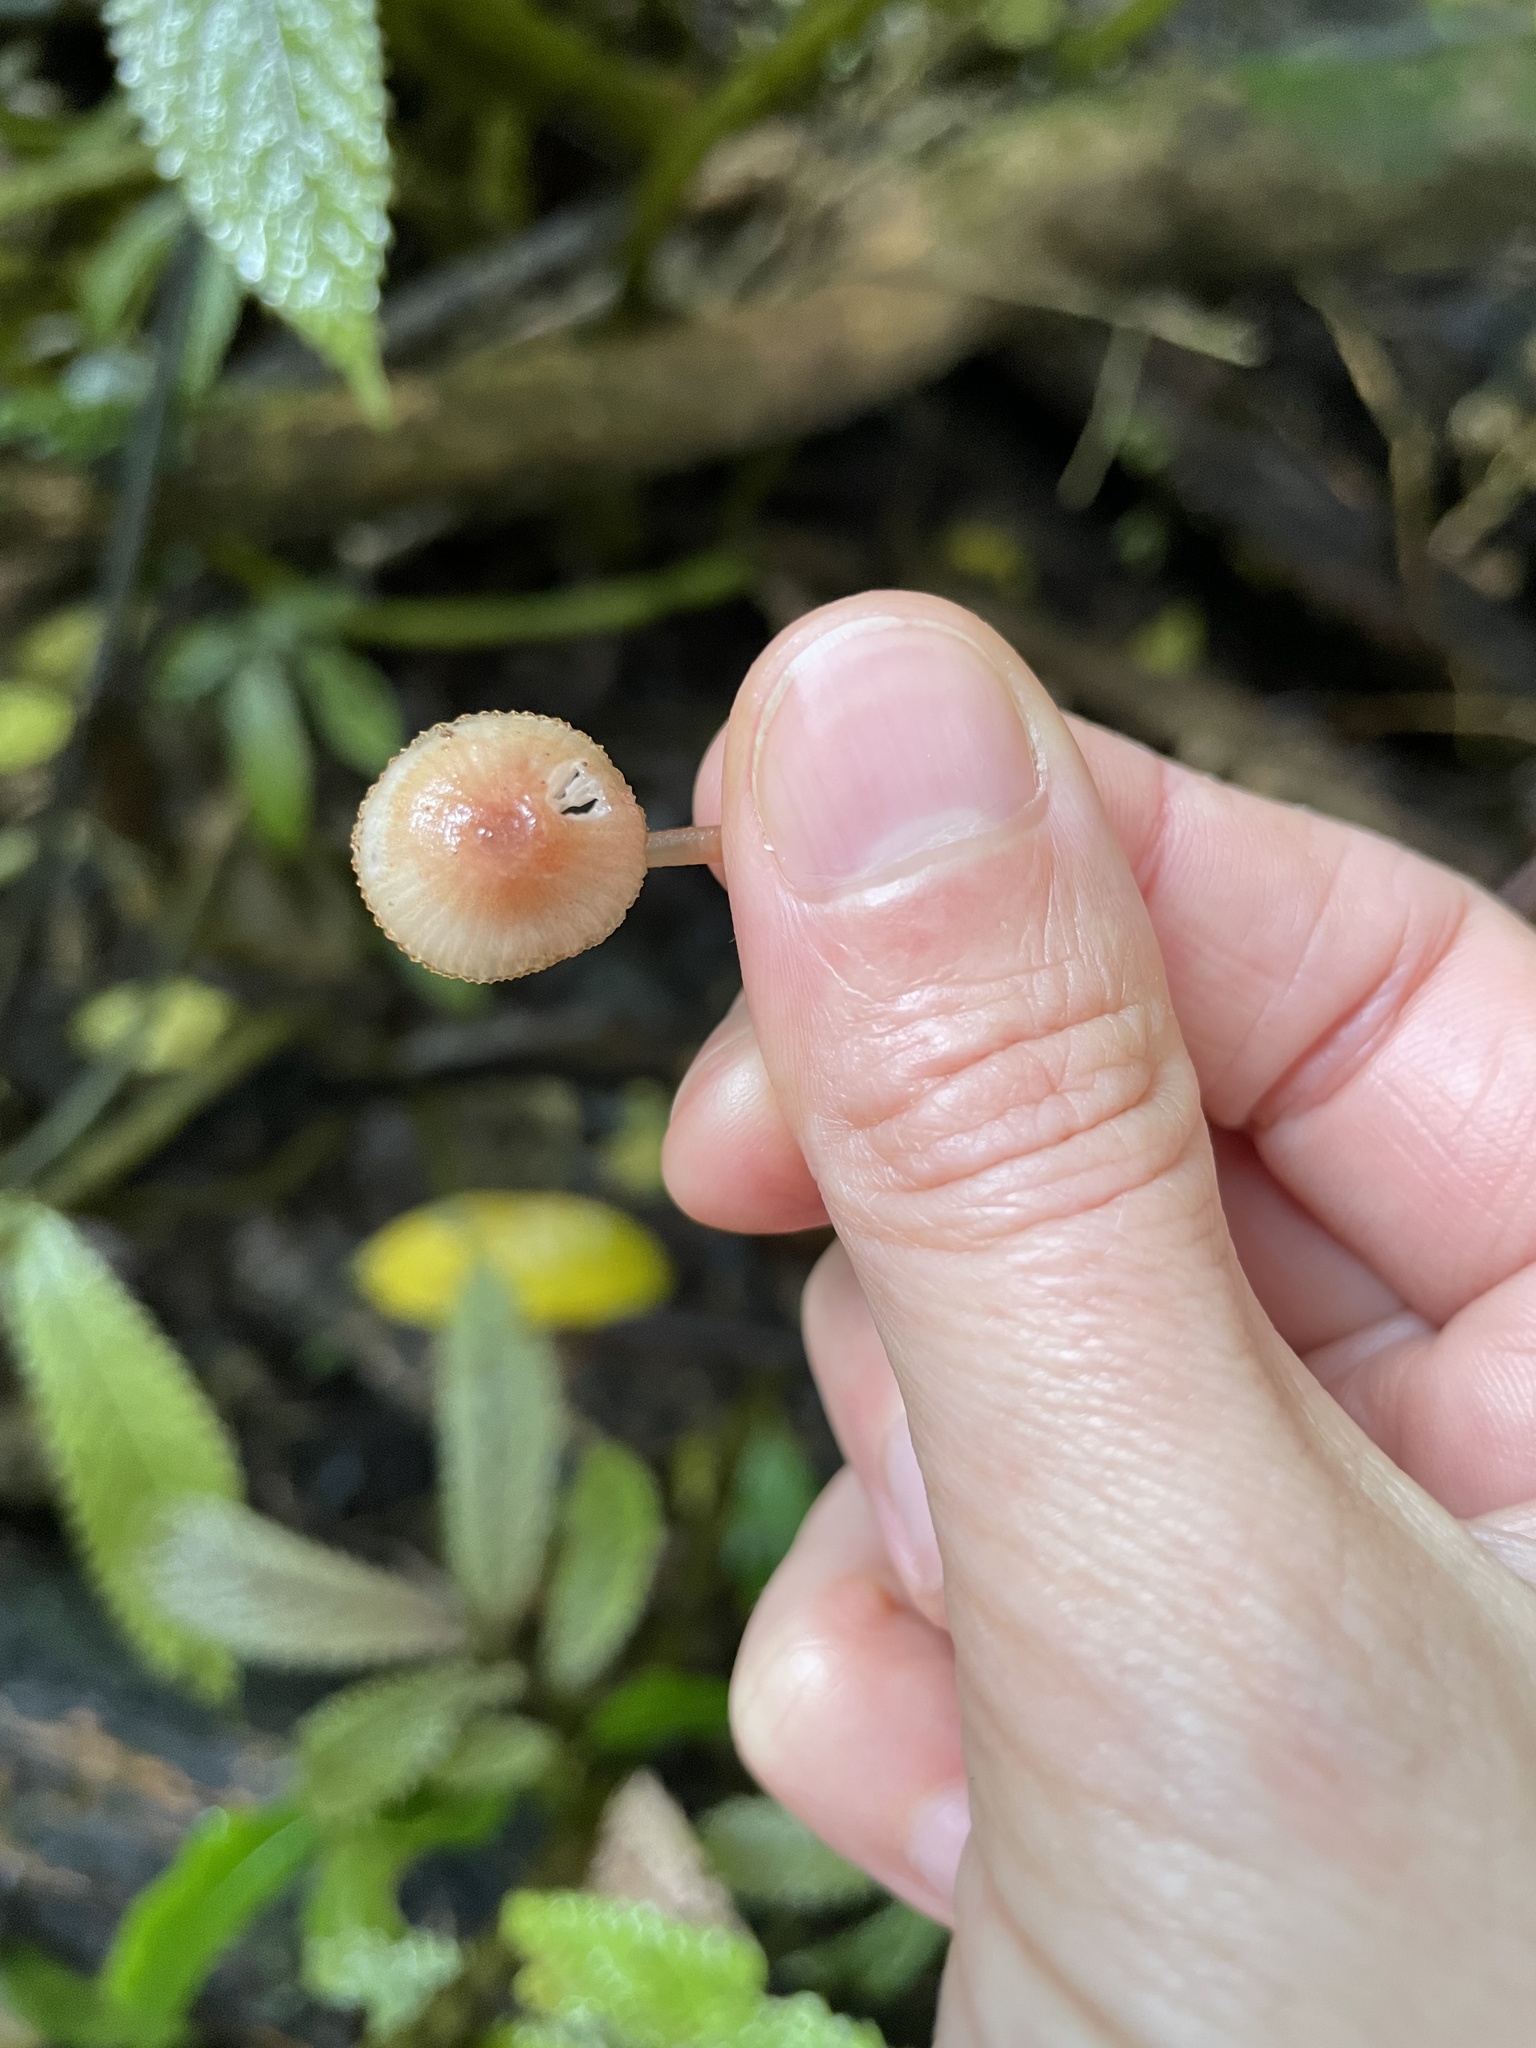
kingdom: Fungi
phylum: Basidiomycota
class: Agaricomycetes
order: Agaricales
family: Mycenaceae
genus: Mycena
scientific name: Mycena mariae
